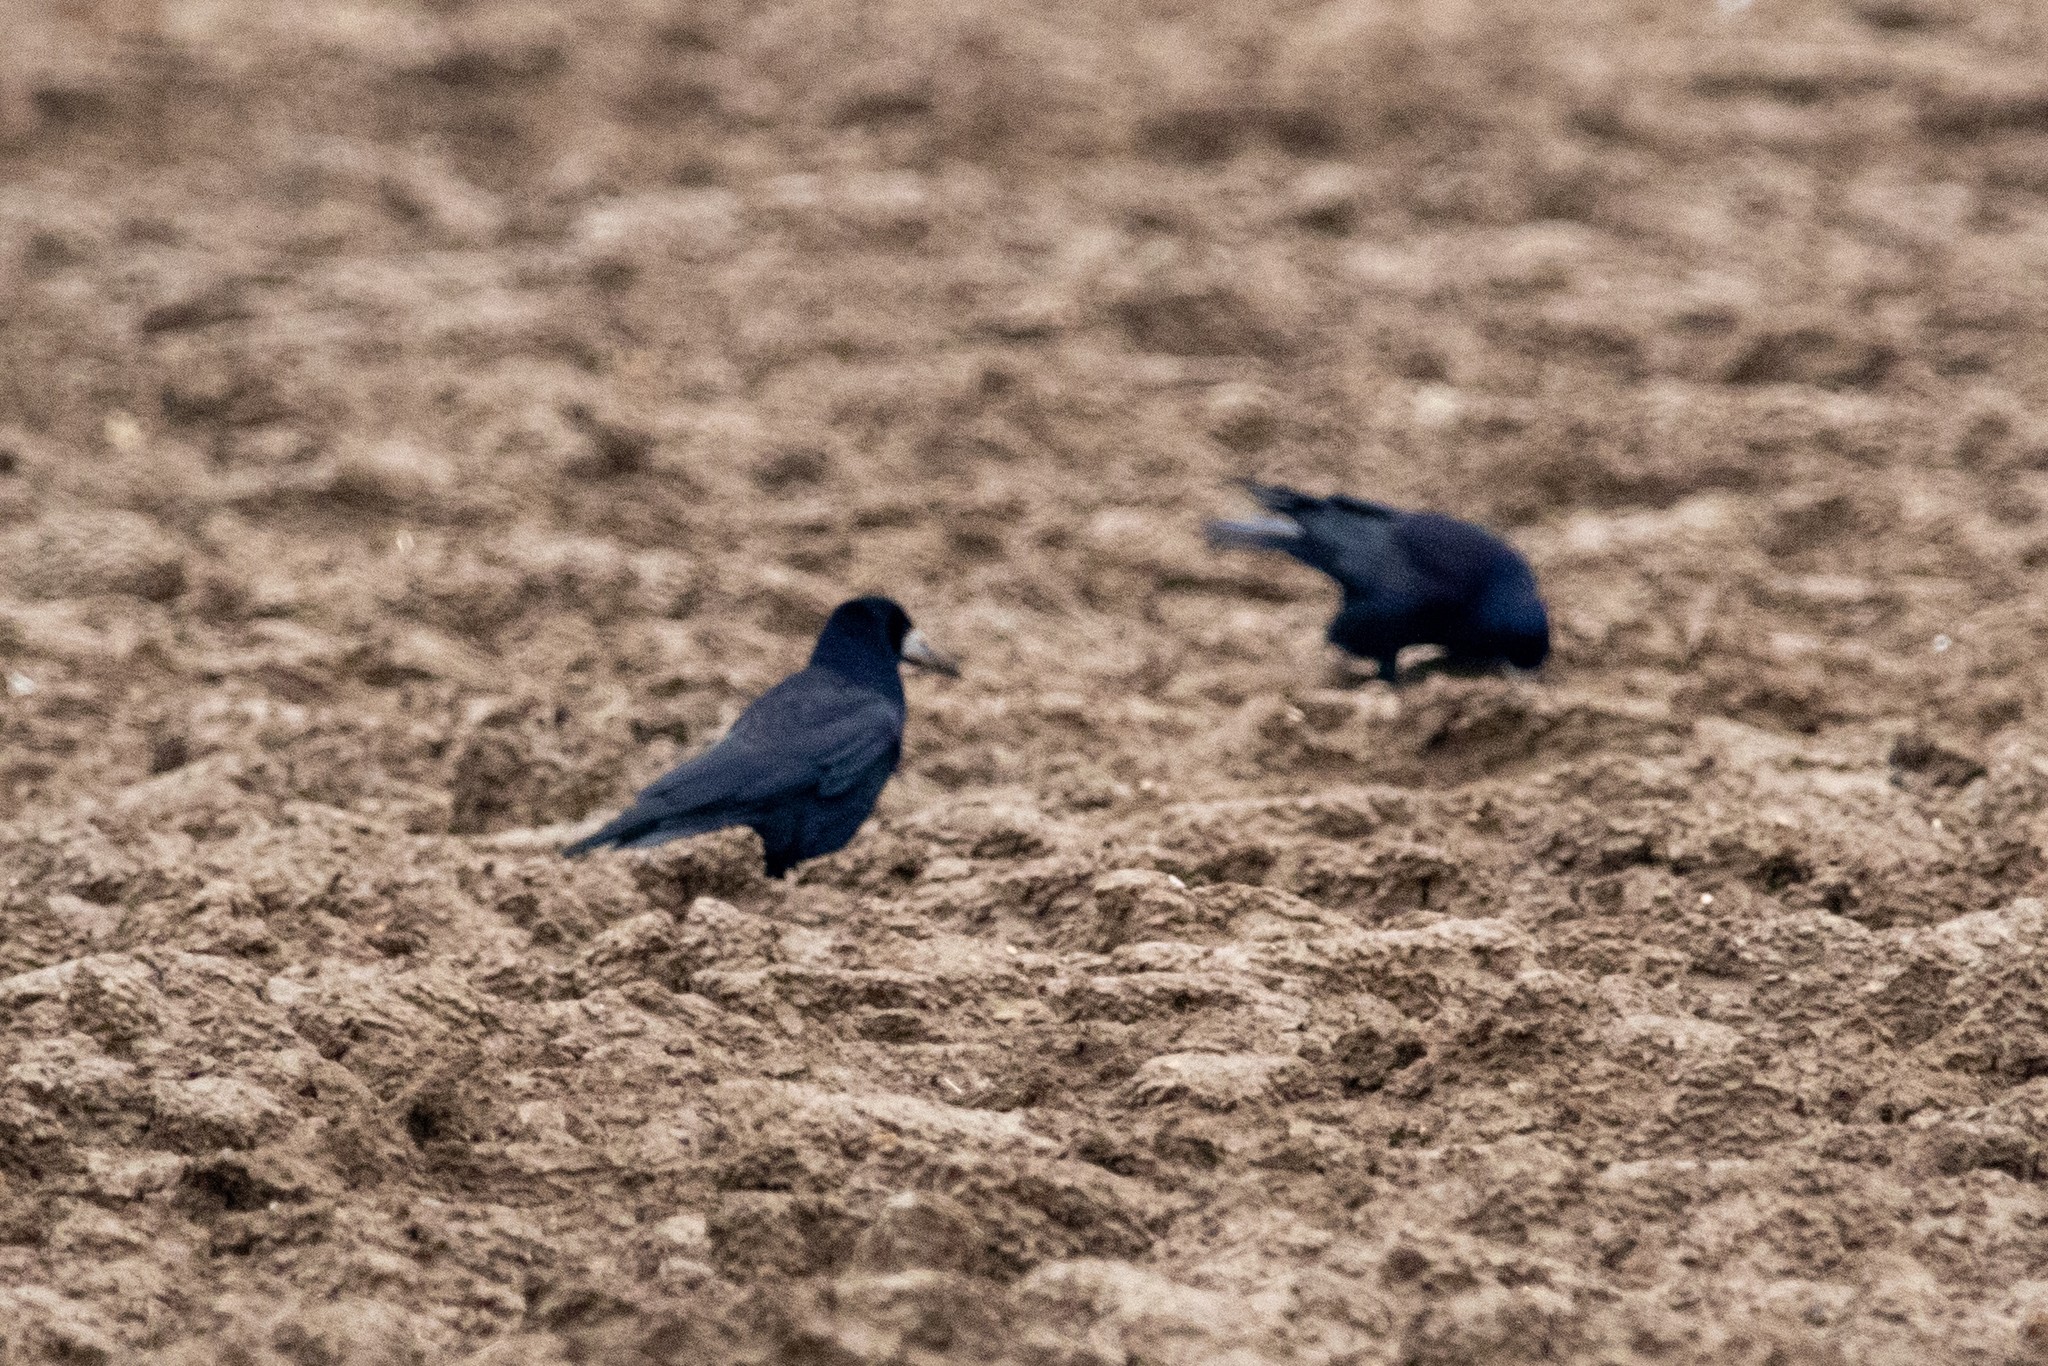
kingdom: Animalia
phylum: Chordata
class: Aves
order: Passeriformes
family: Corvidae
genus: Corvus
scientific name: Corvus frugilegus
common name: Rook
